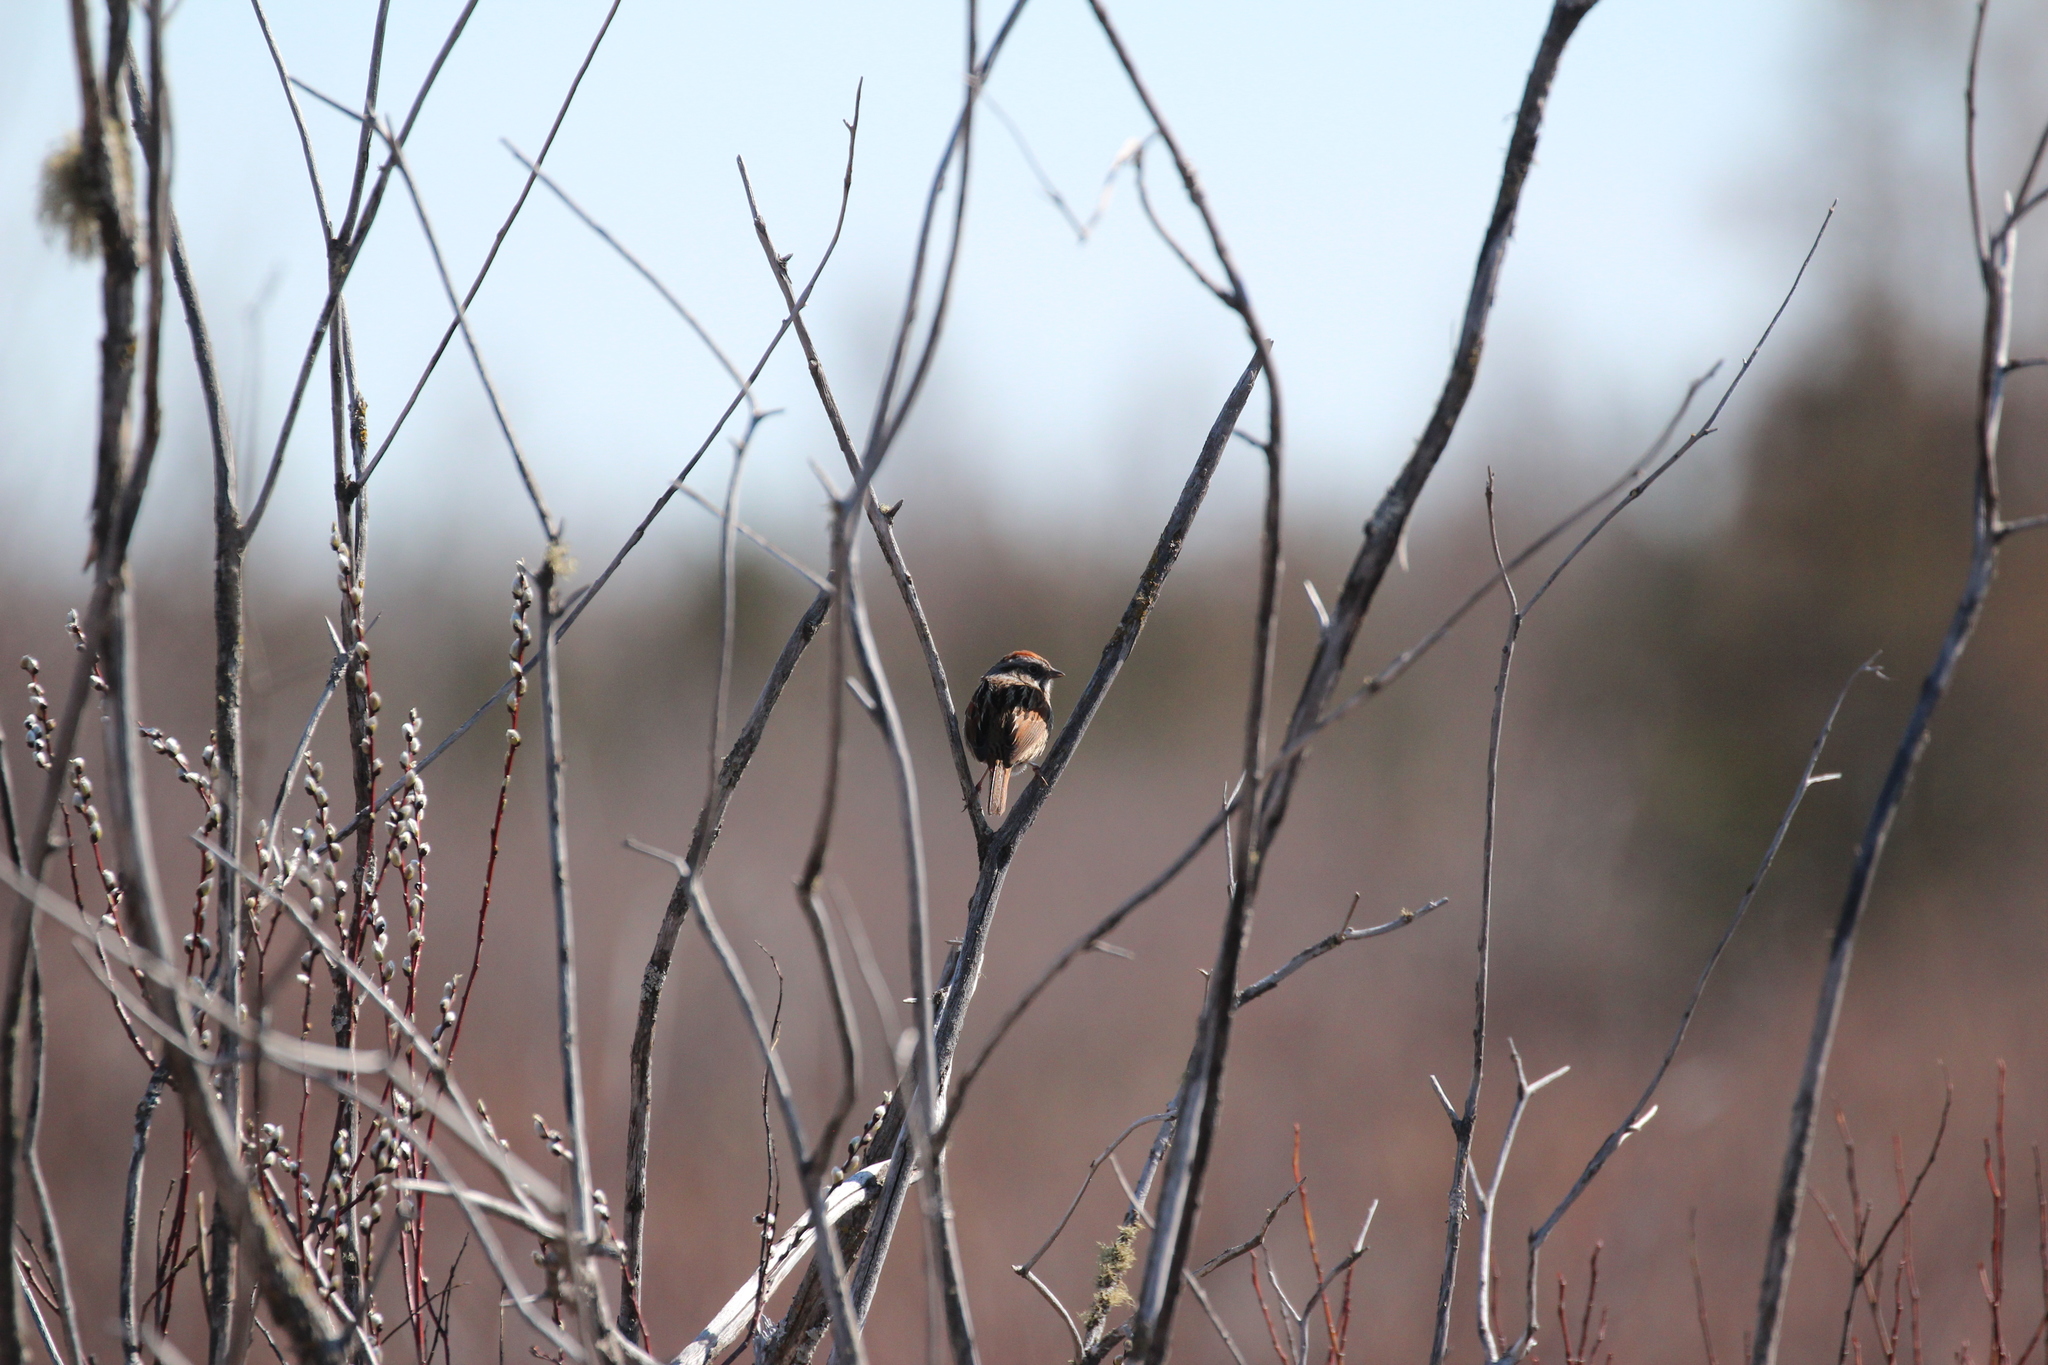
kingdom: Animalia
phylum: Chordata
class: Aves
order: Passeriformes
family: Passerellidae
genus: Melospiza
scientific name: Melospiza georgiana
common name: Swamp sparrow
